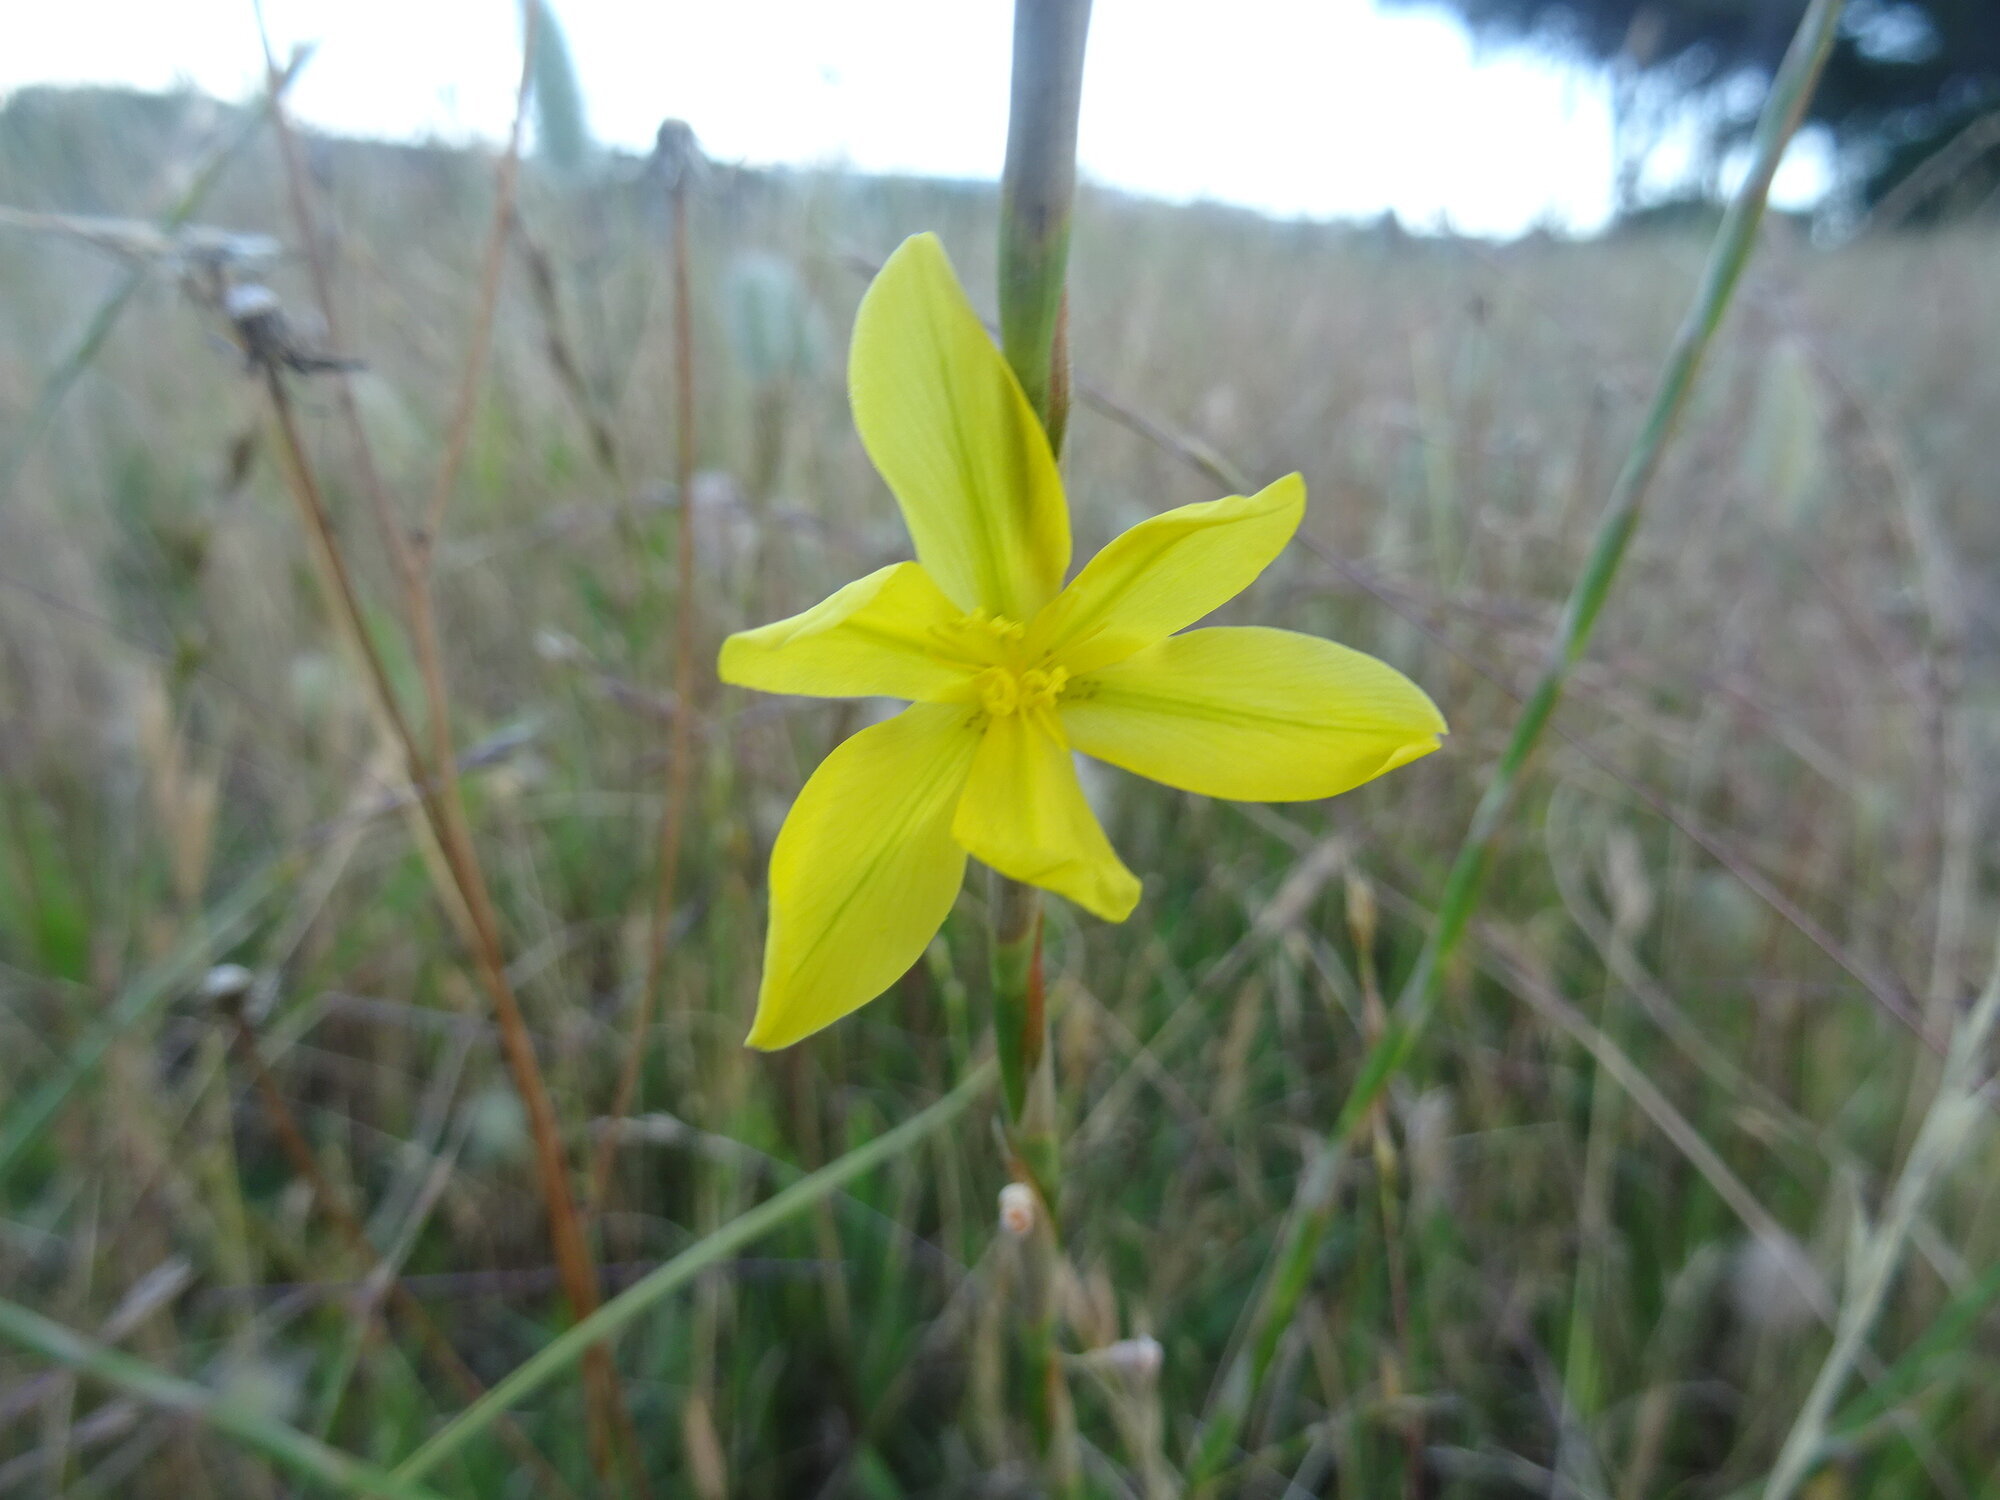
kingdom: Plantae
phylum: Tracheophyta
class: Liliopsida
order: Asparagales
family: Iridaceae
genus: Moraea
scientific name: Moraea lewisiae
